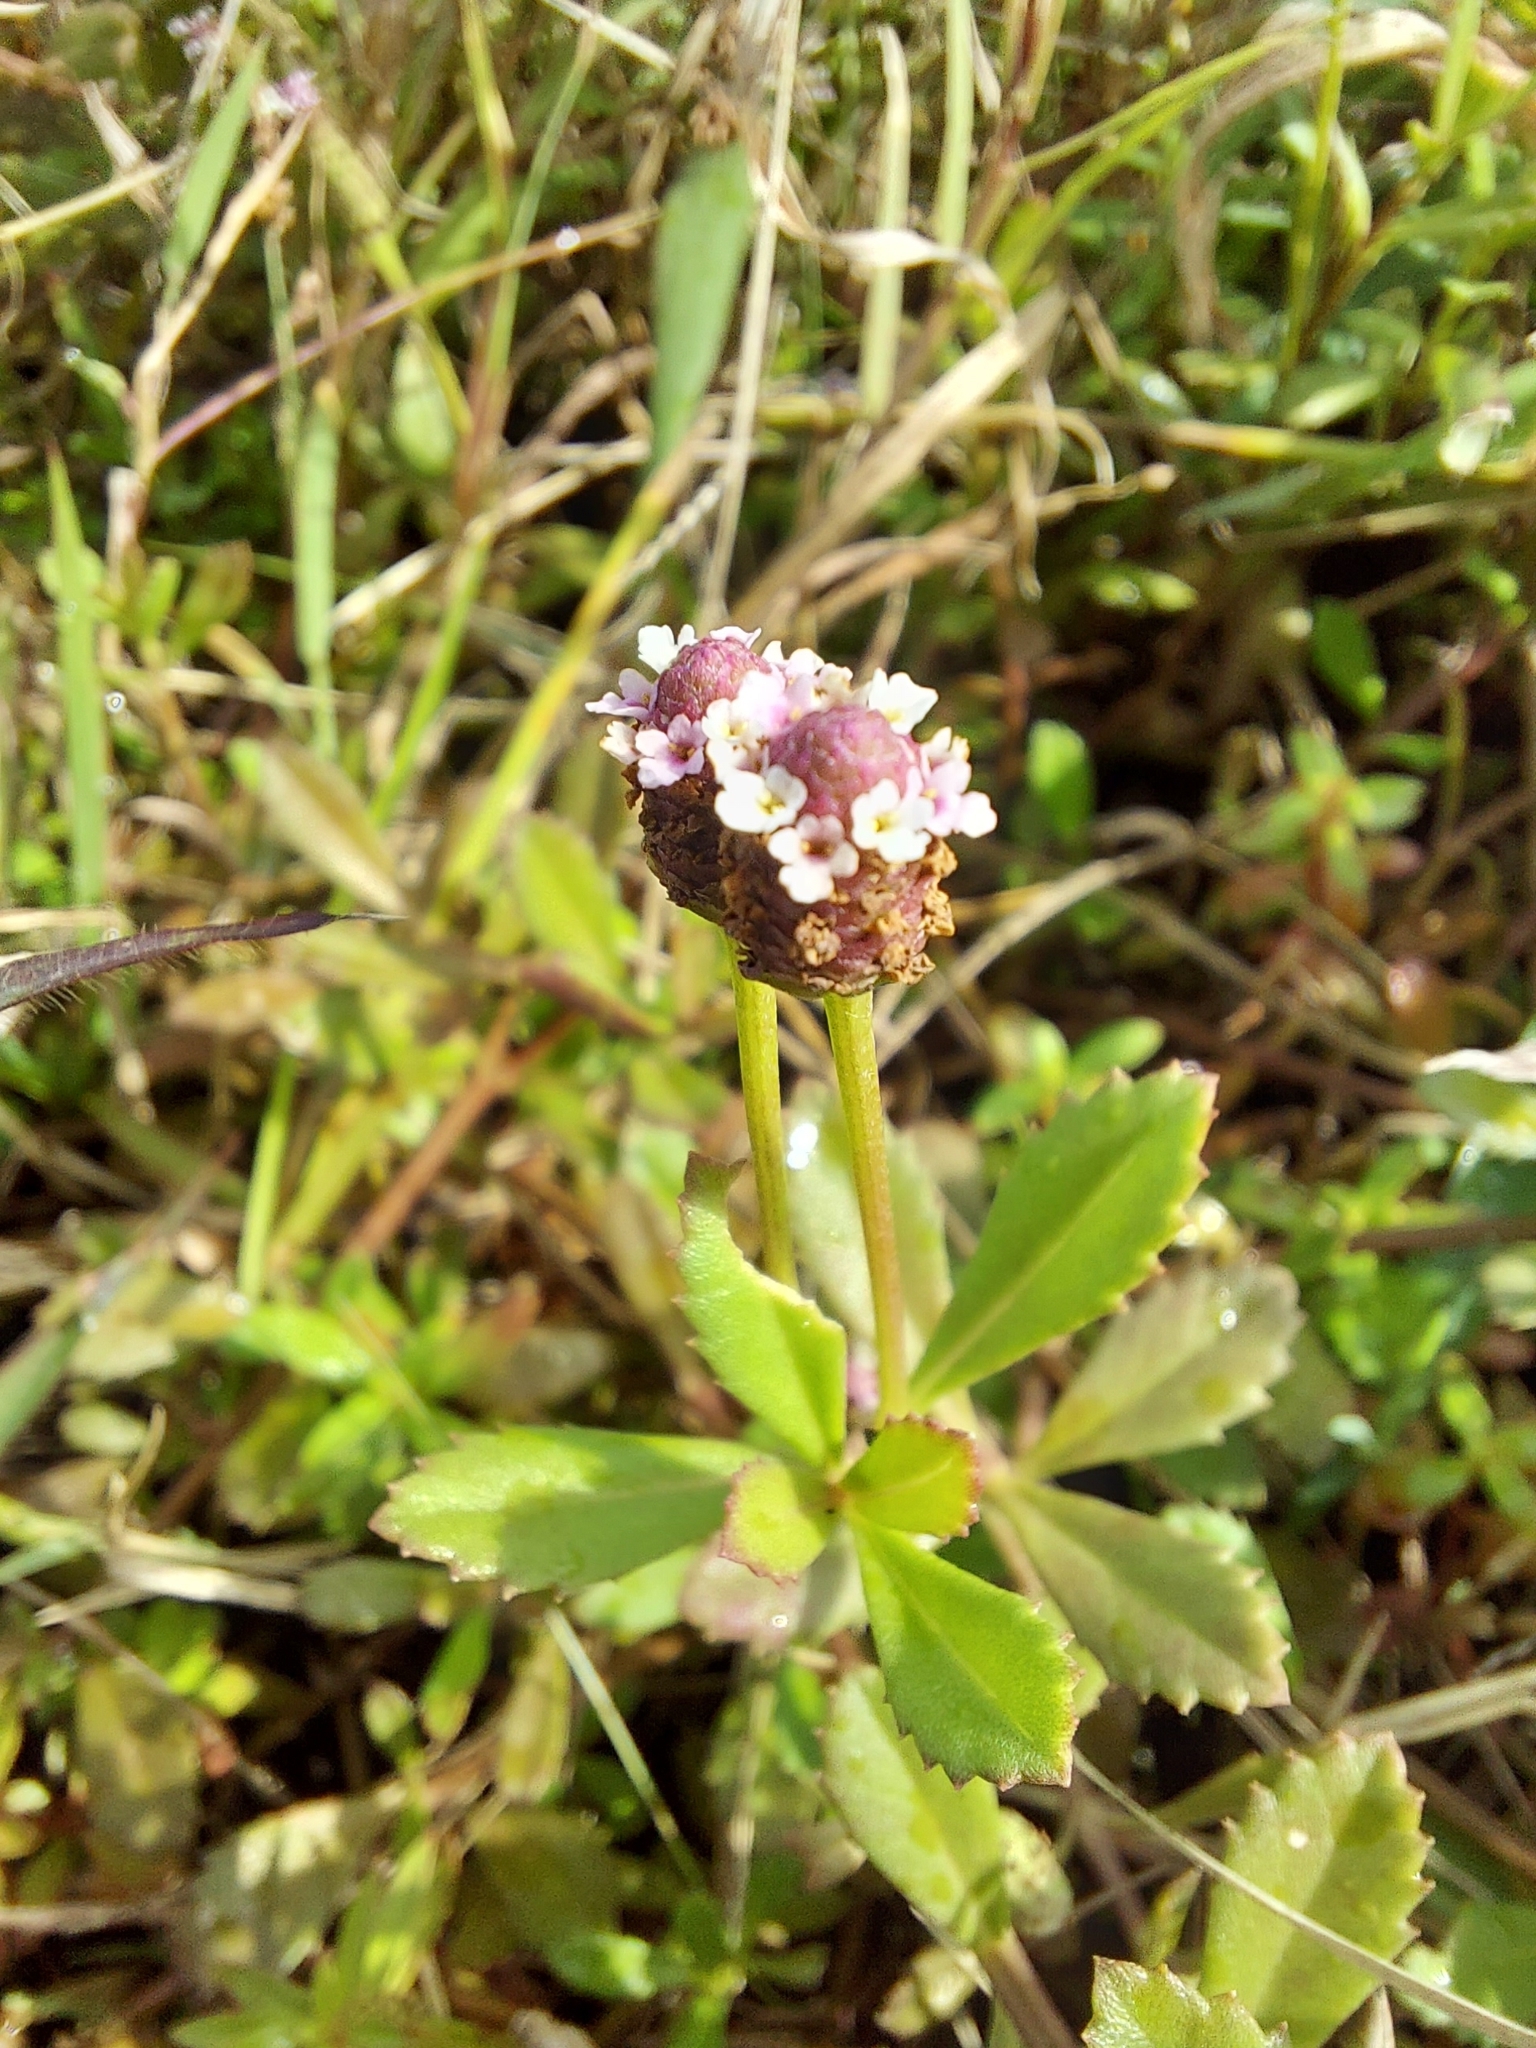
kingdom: Plantae
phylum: Tracheophyta
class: Magnoliopsida
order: Lamiales
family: Verbenaceae
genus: Phyla
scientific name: Phyla nodiflora
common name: Frogfruit
